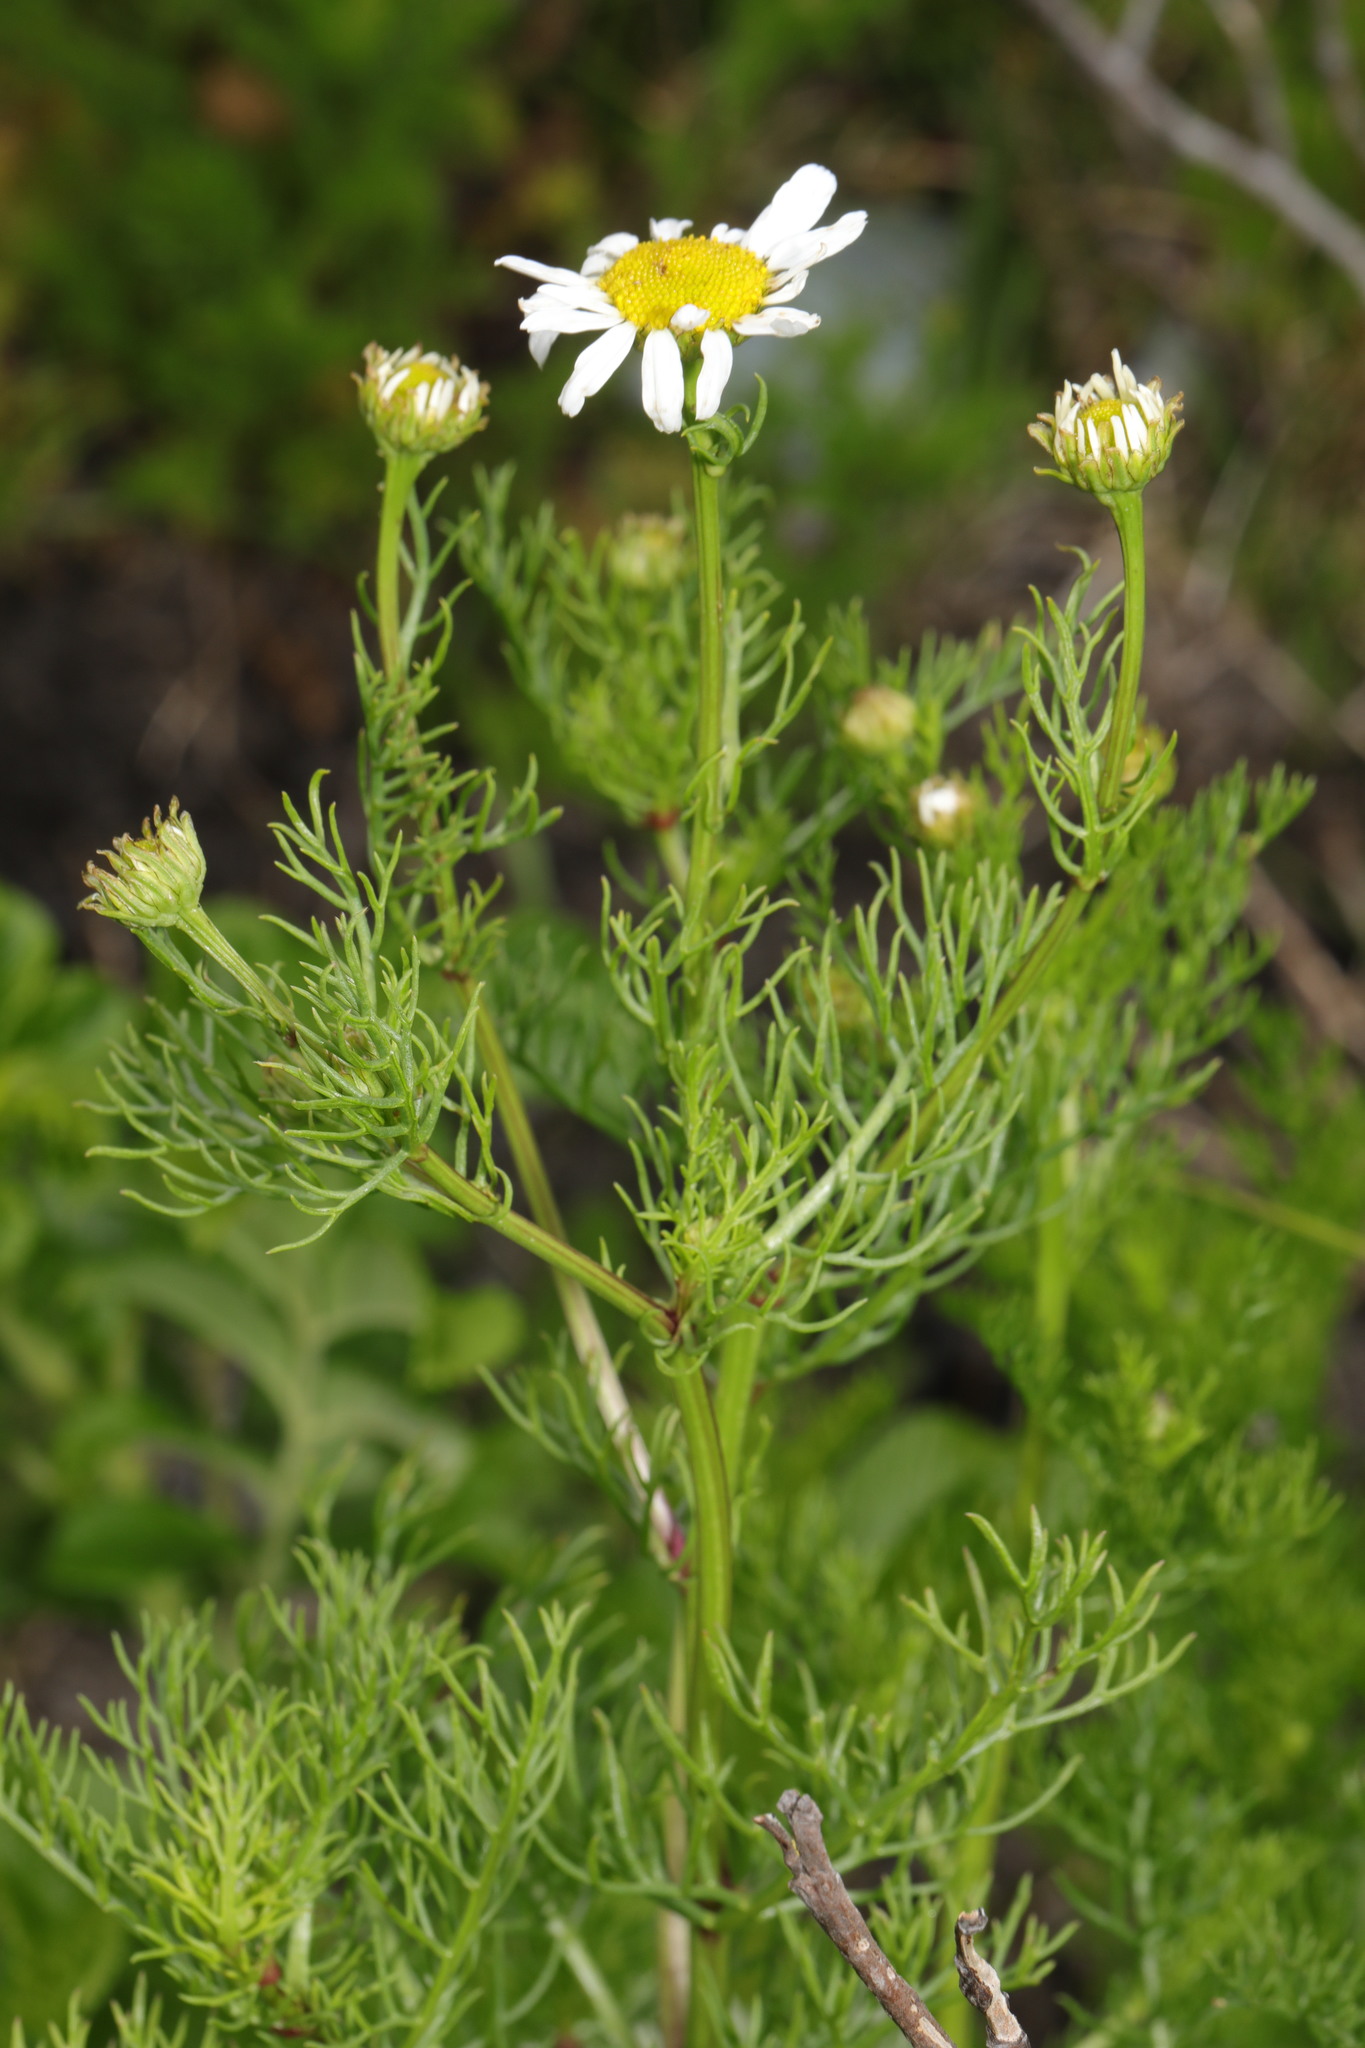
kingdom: Plantae
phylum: Tracheophyta
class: Magnoliopsida
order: Asterales
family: Asteraceae
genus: Tripleurospermum
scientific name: Tripleurospermum maritimum
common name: Sea mayweed
